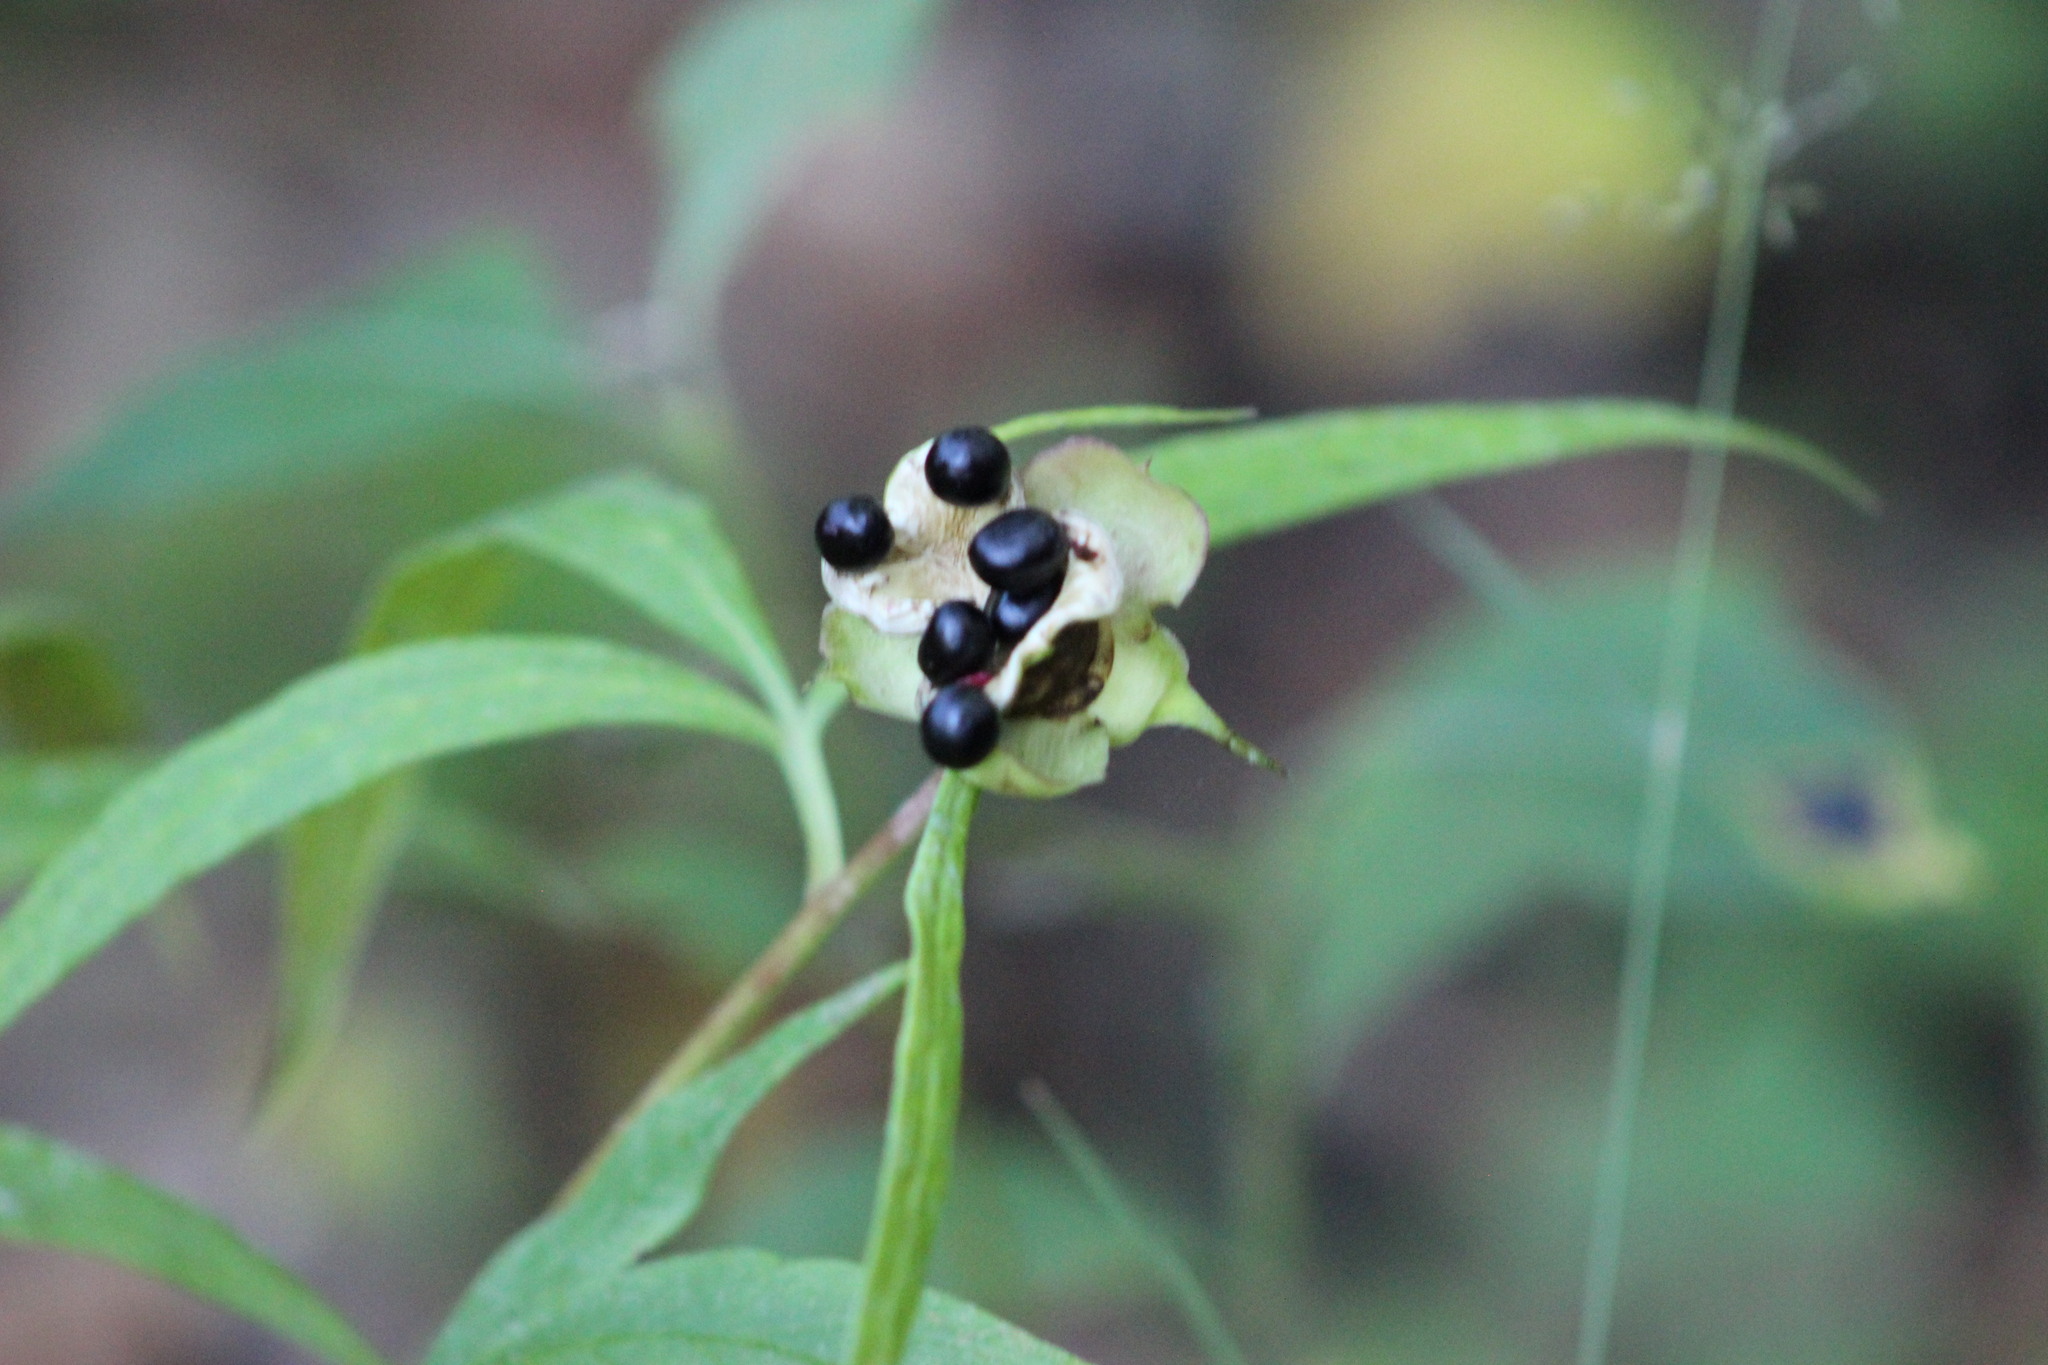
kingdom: Plantae
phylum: Tracheophyta
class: Magnoliopsida
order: Saxifragales
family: Paeoniaceae
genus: Paeonia
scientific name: Paeonia anomala
